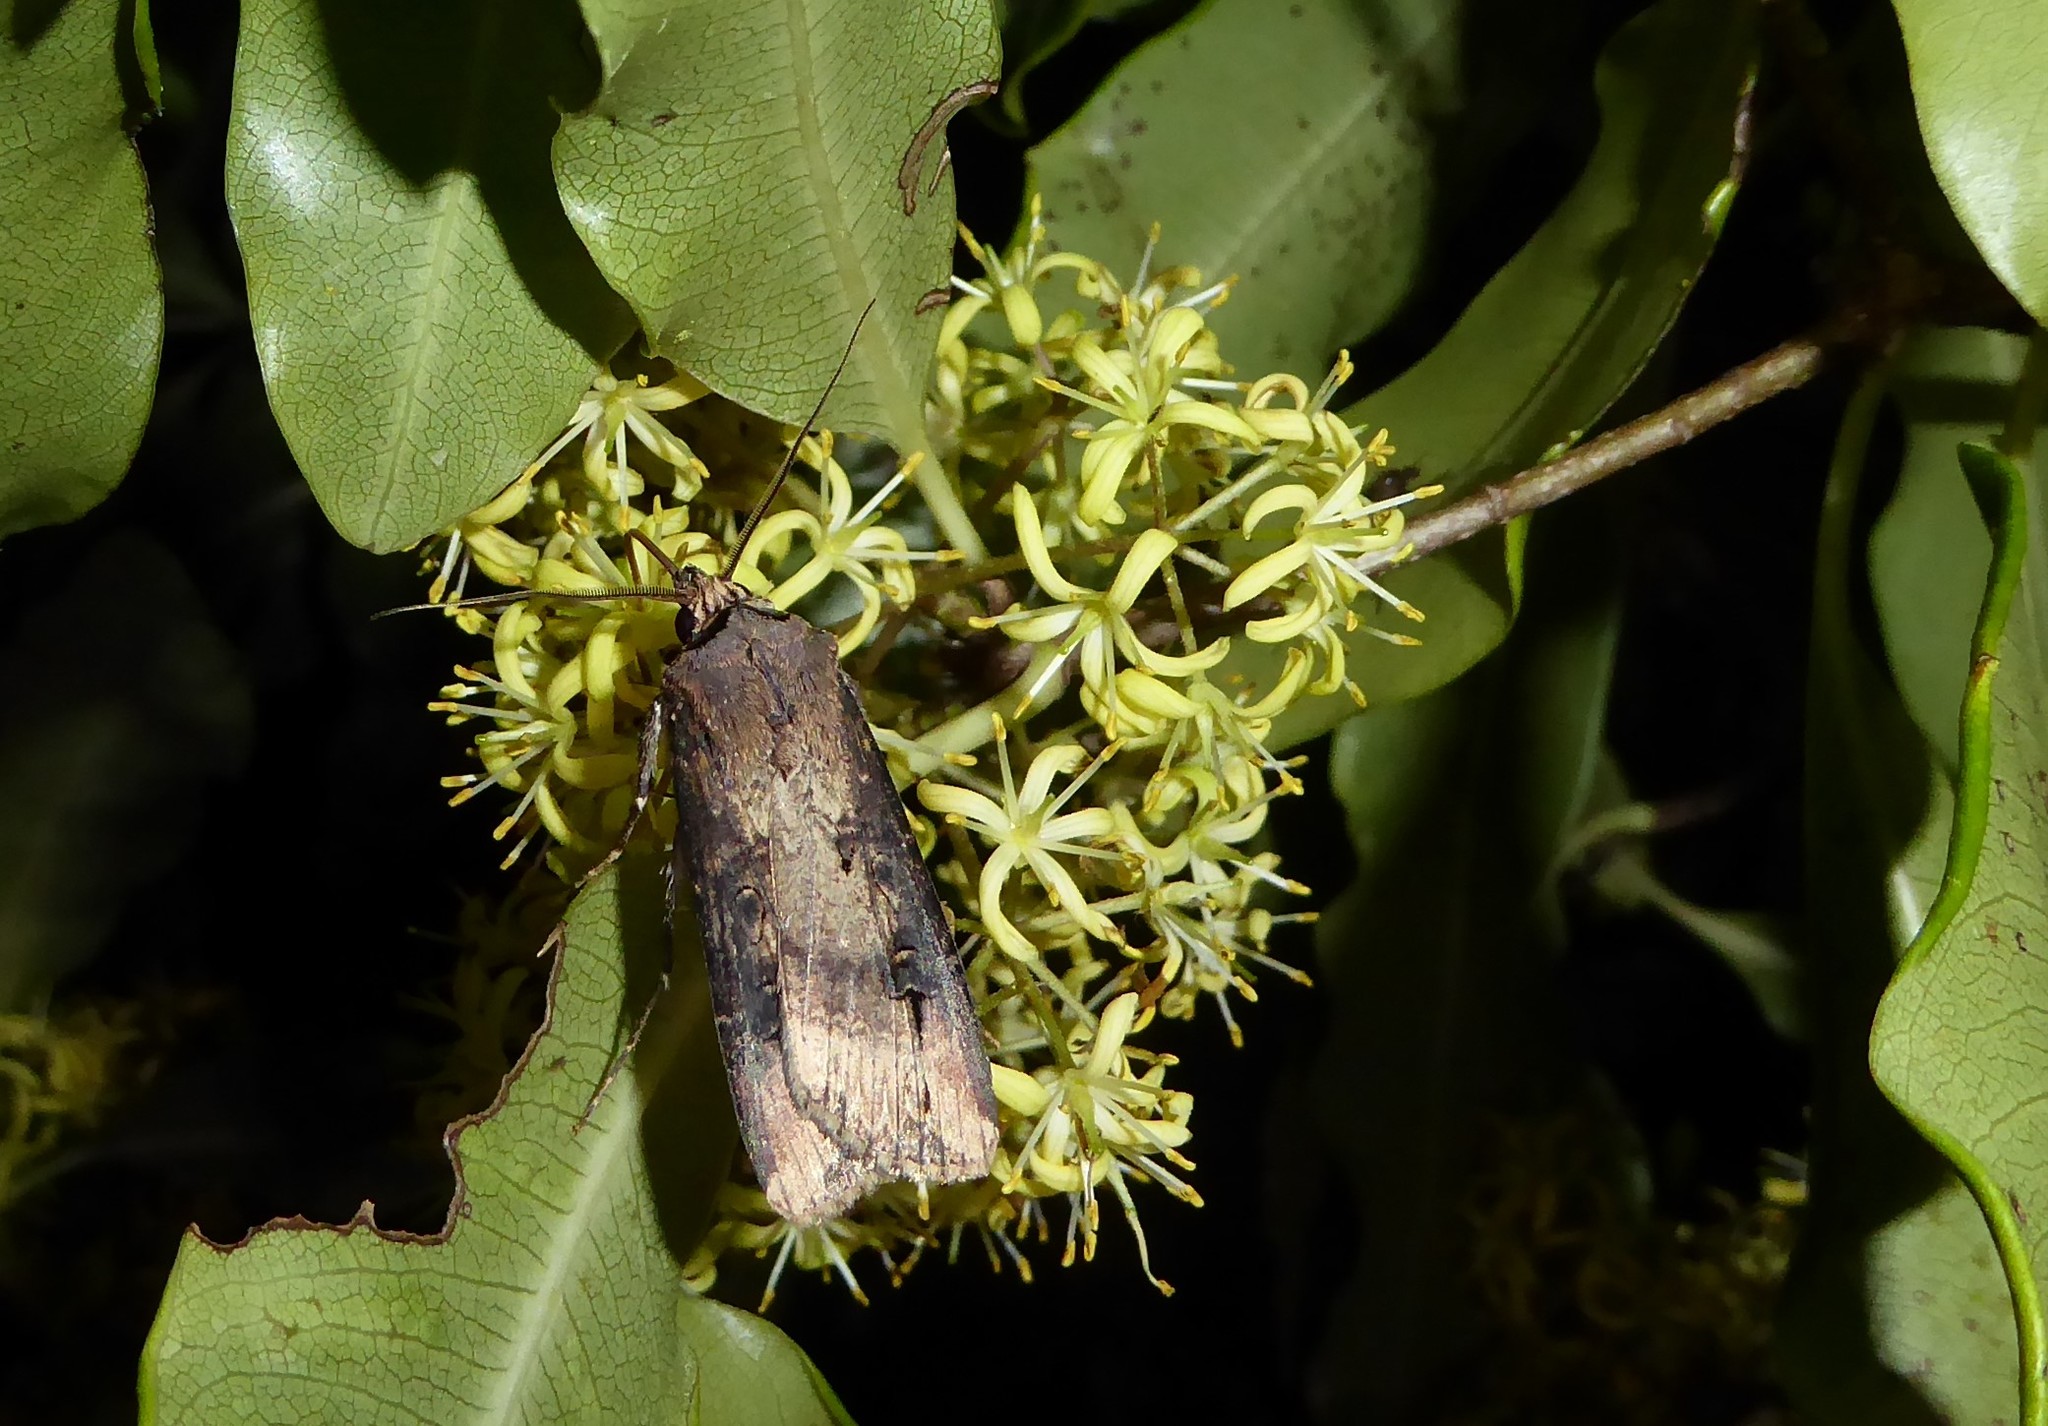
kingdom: Animalia
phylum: Arthropoda
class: Insecta
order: Lepidoptera
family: Noctuidae
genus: Agrotis
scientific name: Agrotis ipsilon
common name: Dark sword-grass
